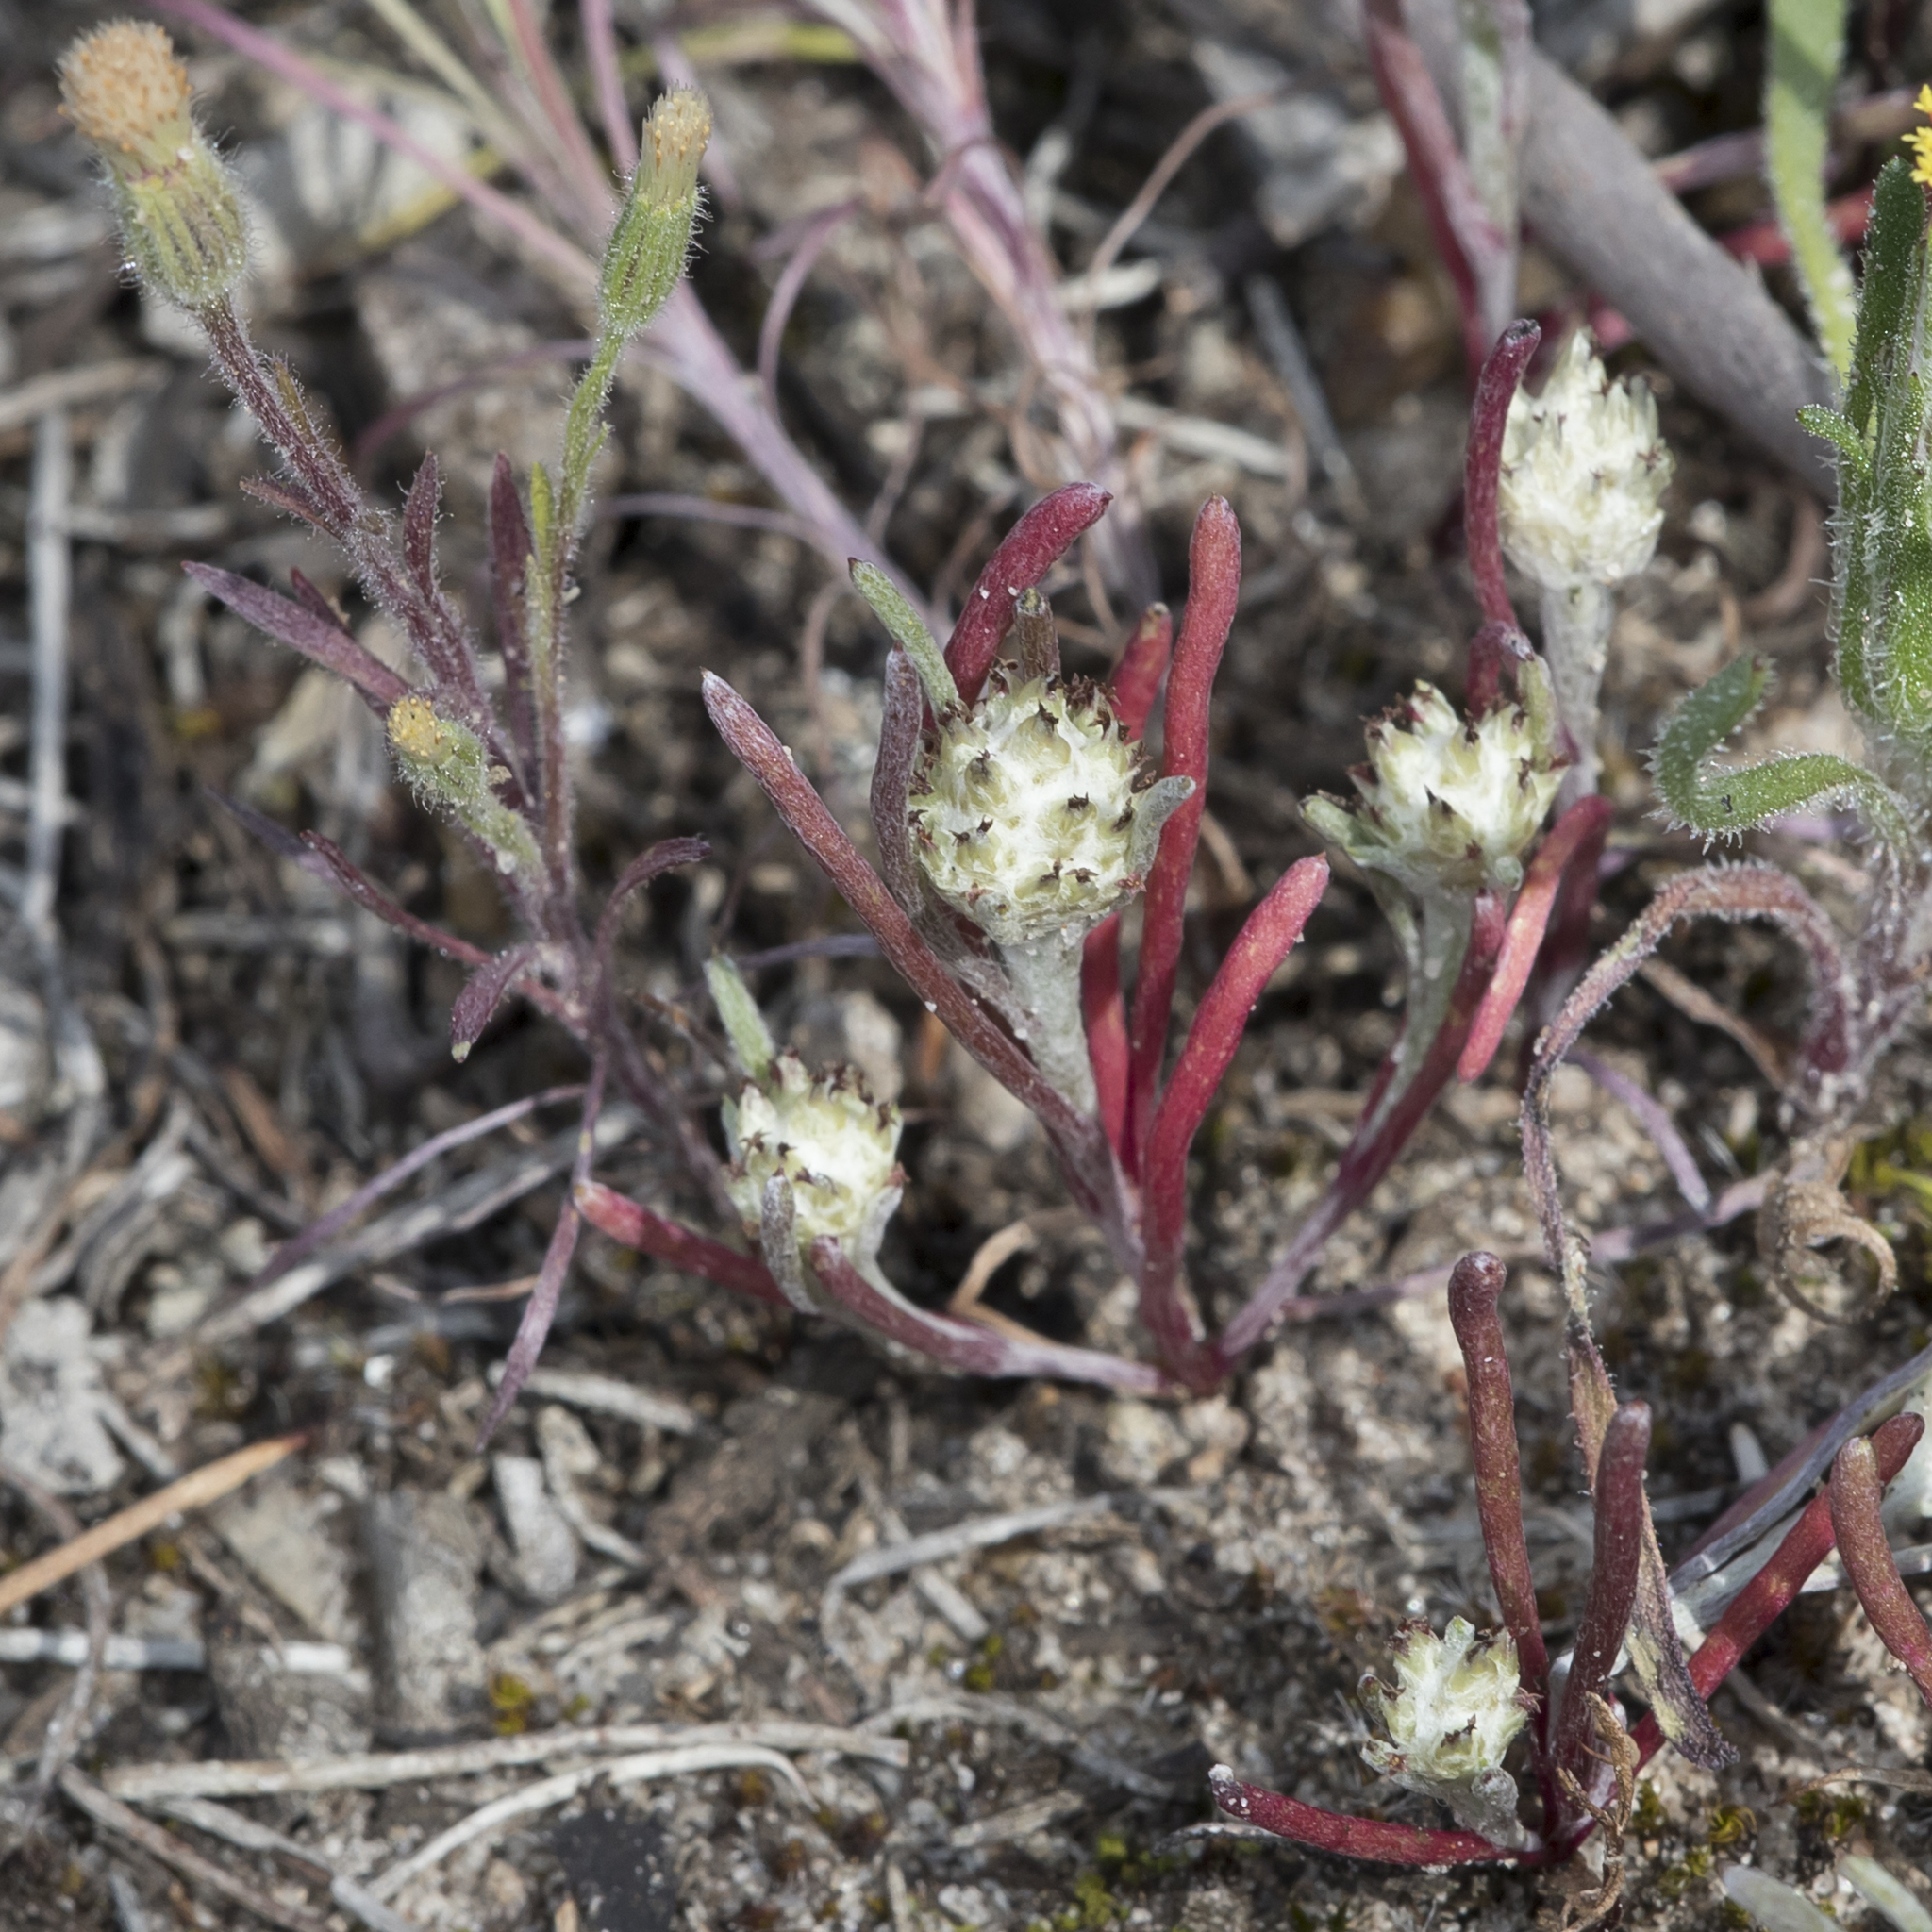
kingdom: Plantae
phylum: Tracheophyta
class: Magnoliopsida
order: Asterales
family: Asteraceae
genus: Blennospora
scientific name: Blennospora drummondii
